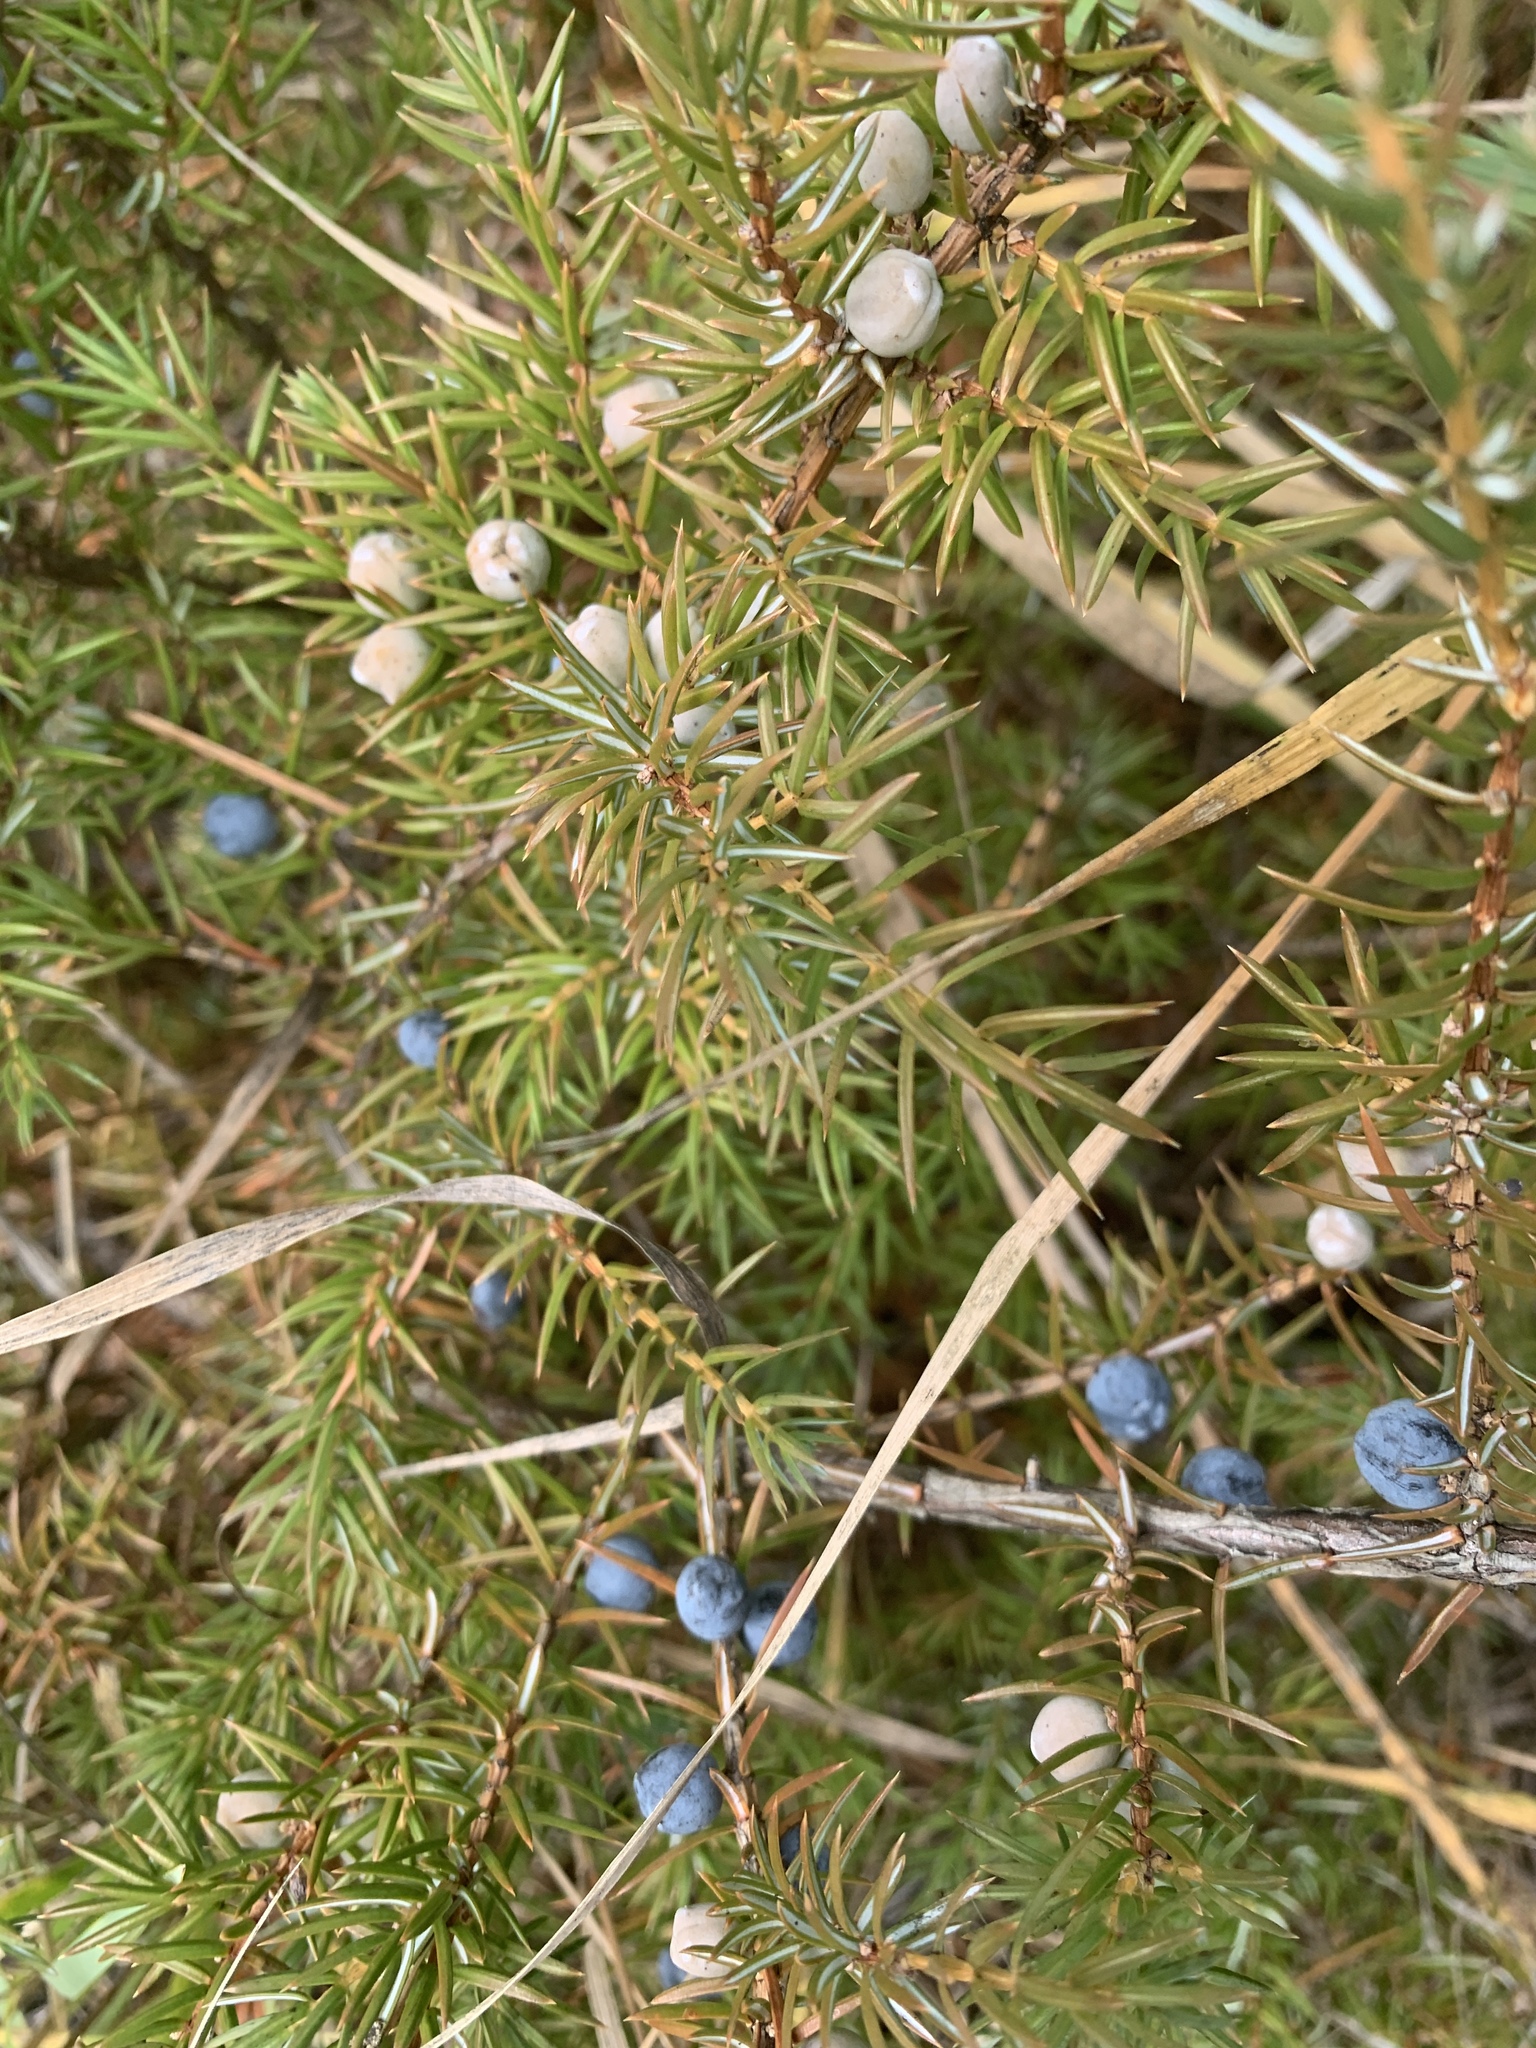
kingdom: Plantae
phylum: Tracheophyta
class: Pinopsida
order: Pinales
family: Cupressaceae
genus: Juniperus
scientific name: Juniperus communis
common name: Common juniper
